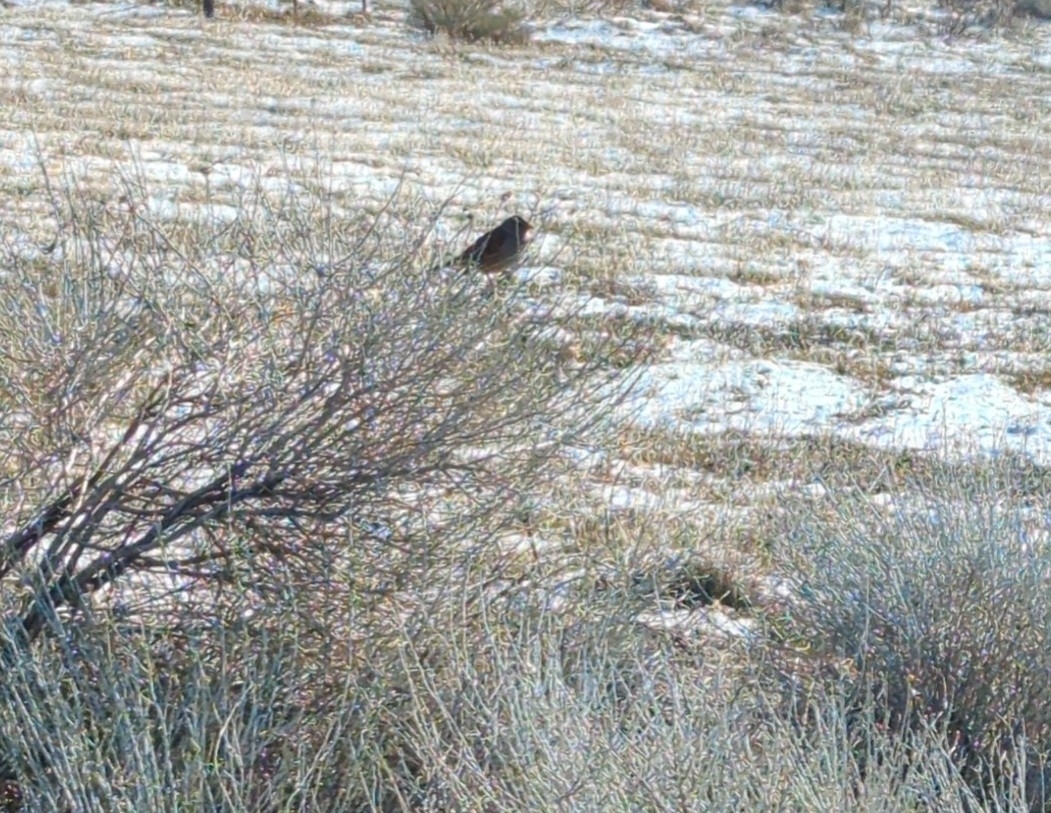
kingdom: Animalia
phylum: Chordata
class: Aves
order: Passeriformes
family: Passerellidae
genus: Zonotrichia
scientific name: Zonotrichia leucophrys
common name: White-crowned sparrow
